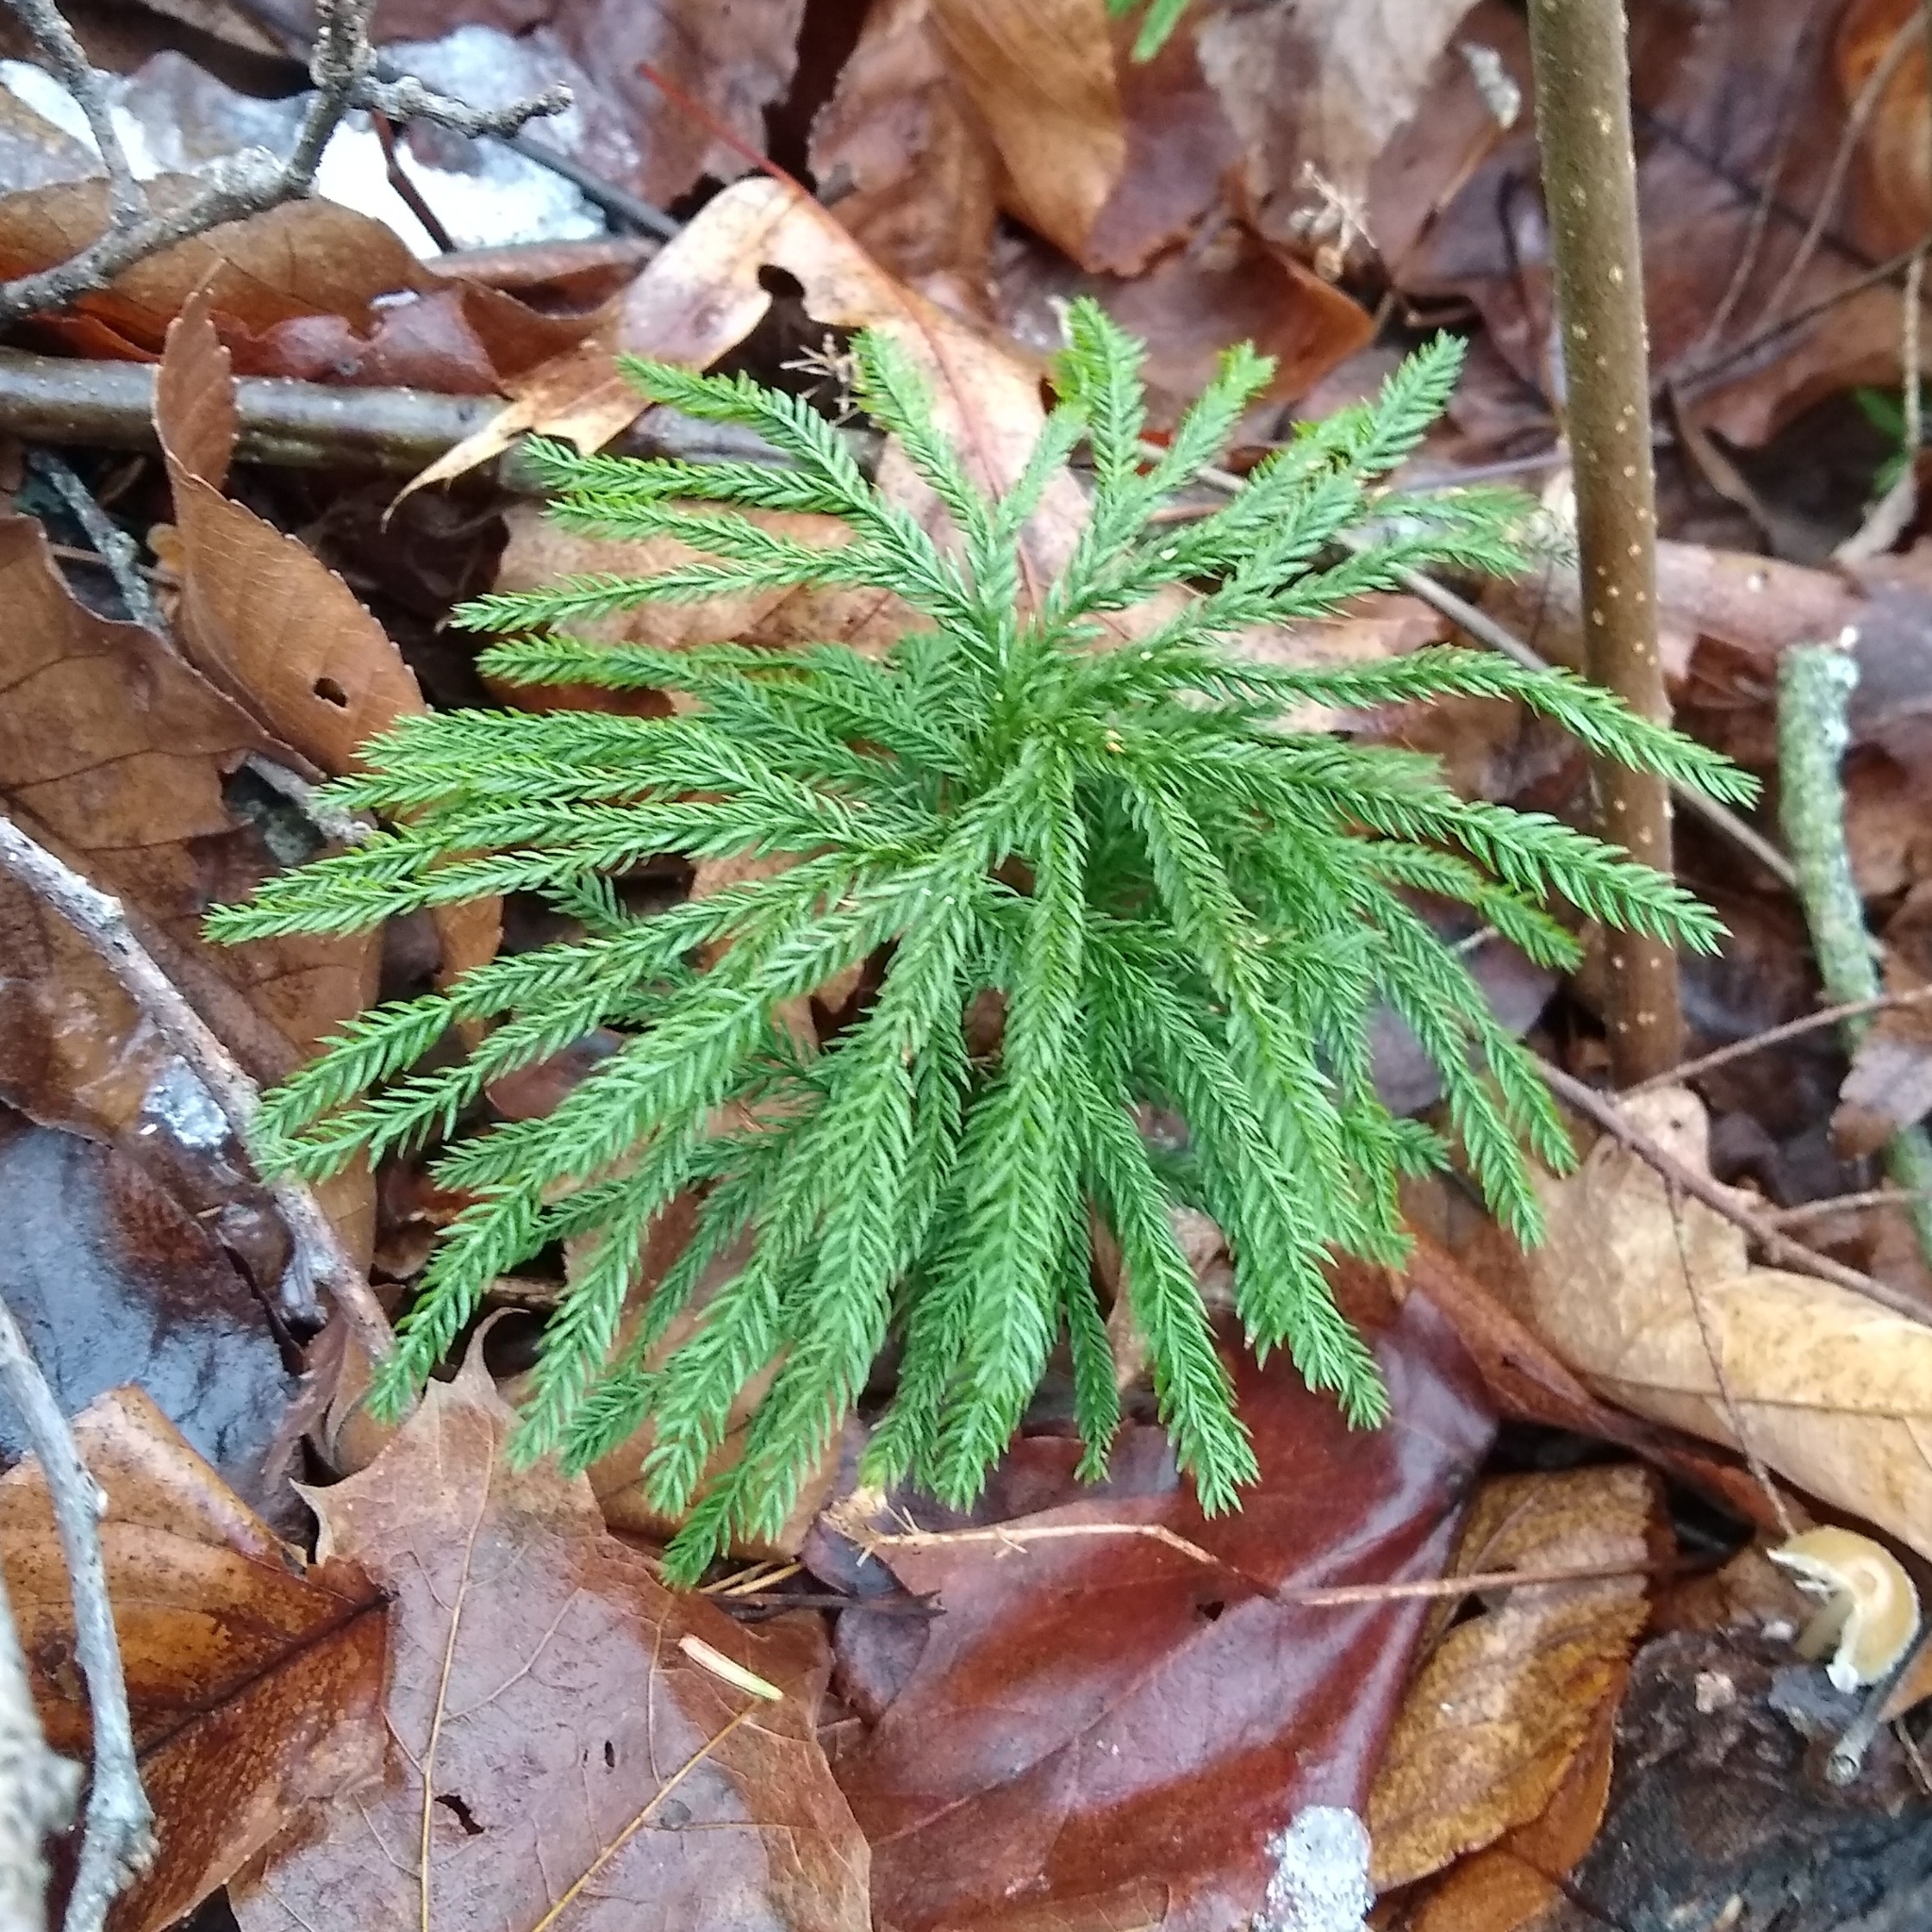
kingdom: Plantae
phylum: Tracheophyta
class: Lycopodiopsida
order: Lycopodiales
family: Lycopodiaceae
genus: Dendrolycopodium
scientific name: Dendrolycopodium obscurum
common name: Common ground-pine
